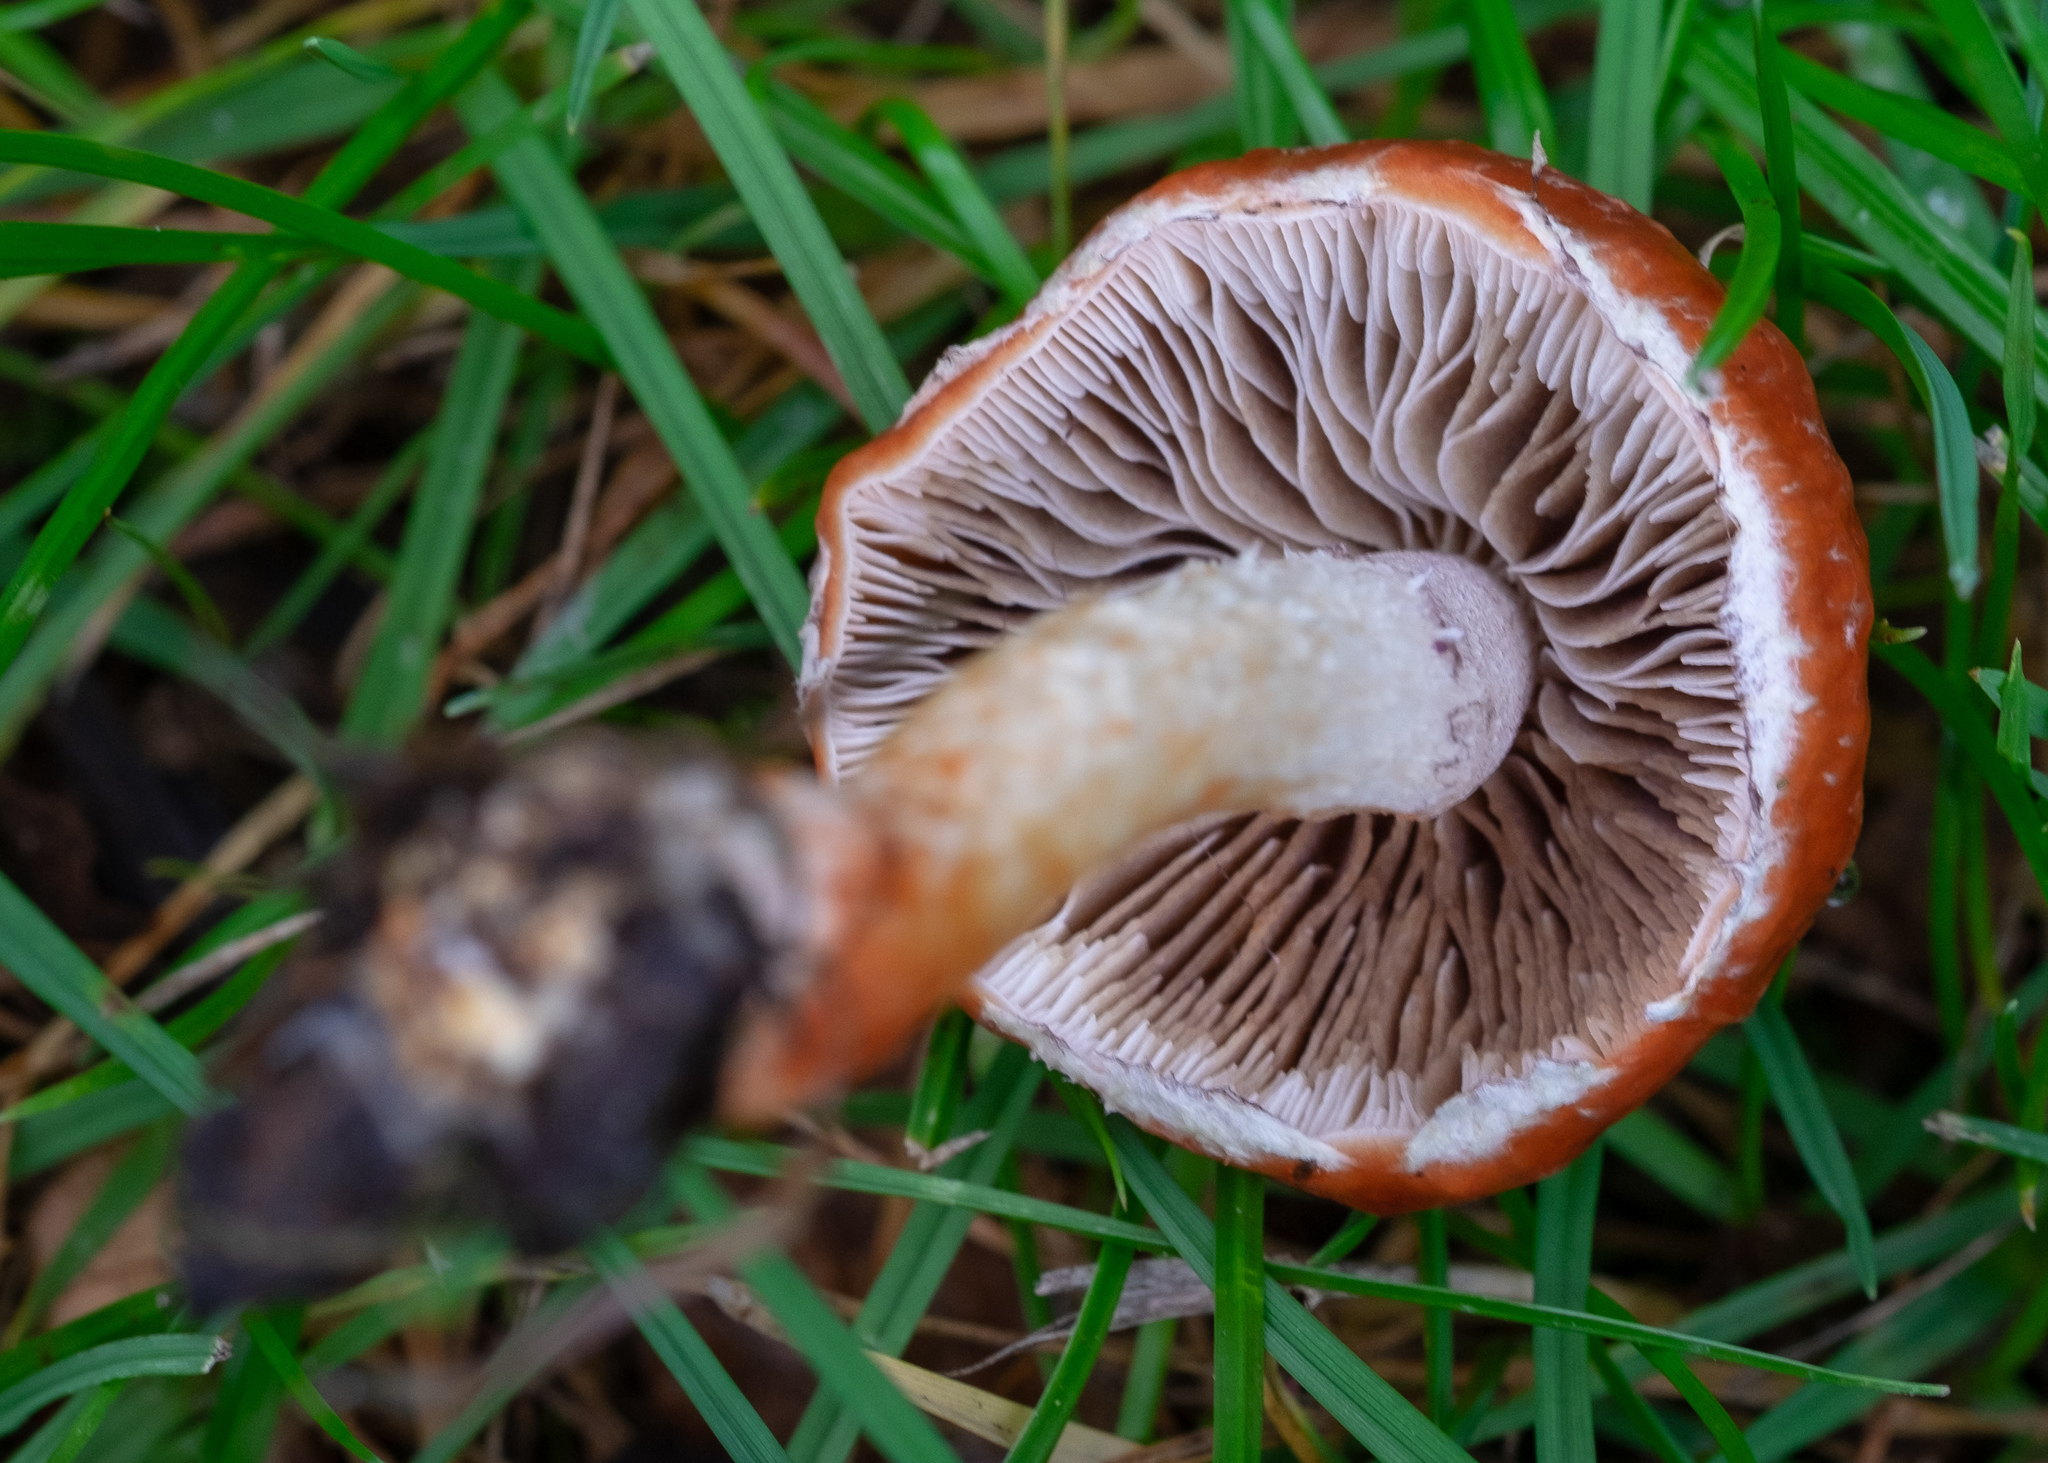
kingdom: Fungi
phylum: Basidiomycota
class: Agaricomycetes
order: Agaricales
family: Strophariaceae
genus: Leratiomyces
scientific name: Leratiomyces ceres
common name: Redlead roundhead
